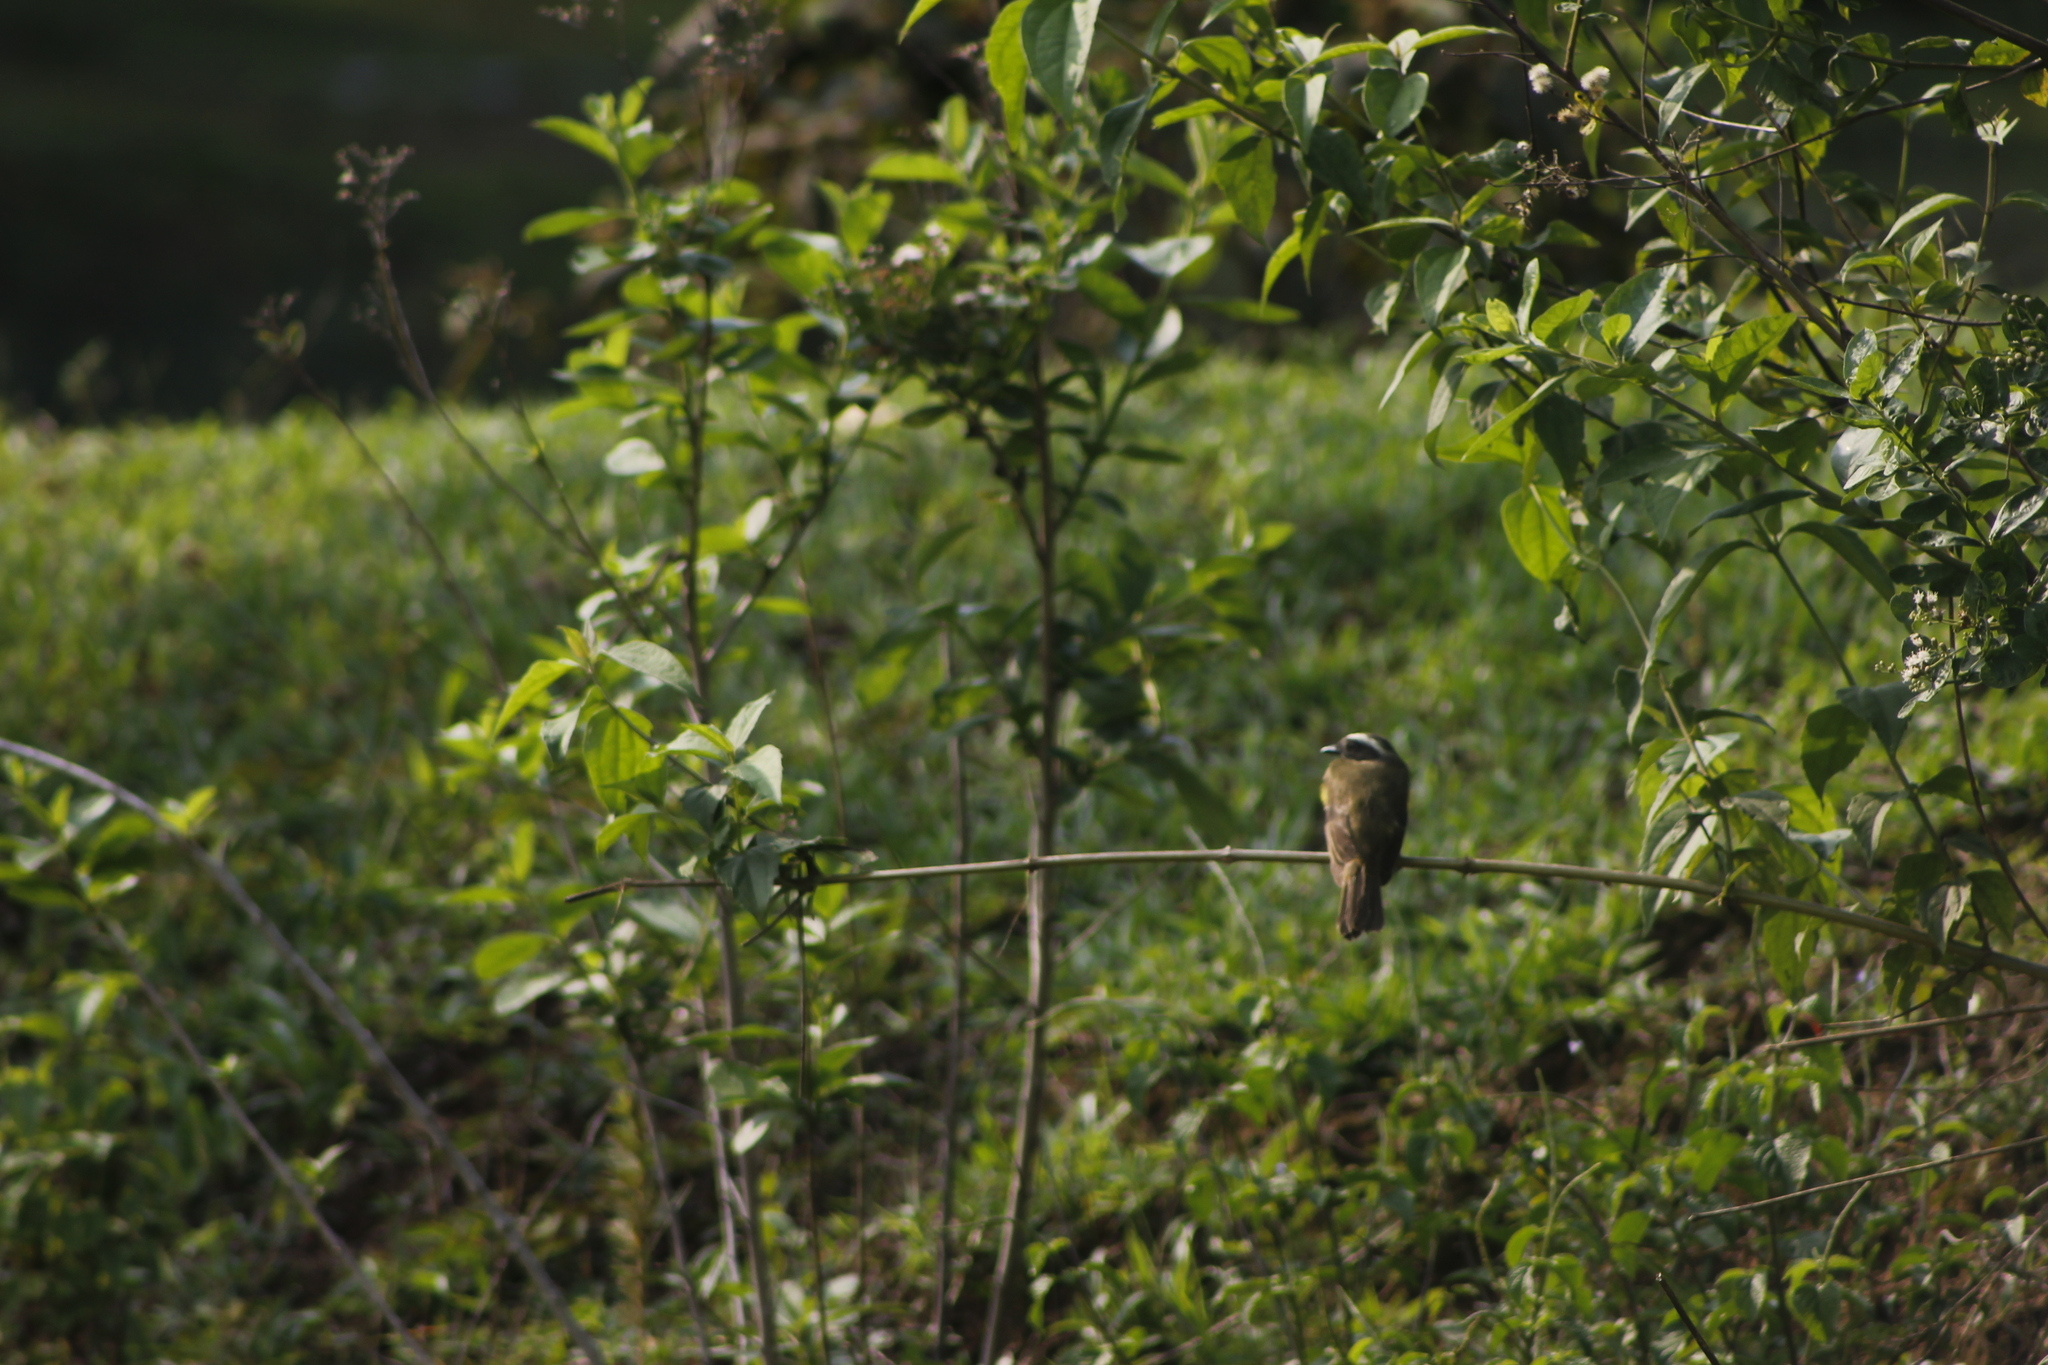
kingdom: Animalia
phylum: Chordata
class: Aves
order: Passeriformes
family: Tyrannidae
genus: Phelpsia
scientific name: Phelpsia inornata
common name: White-bearded flycatcher
